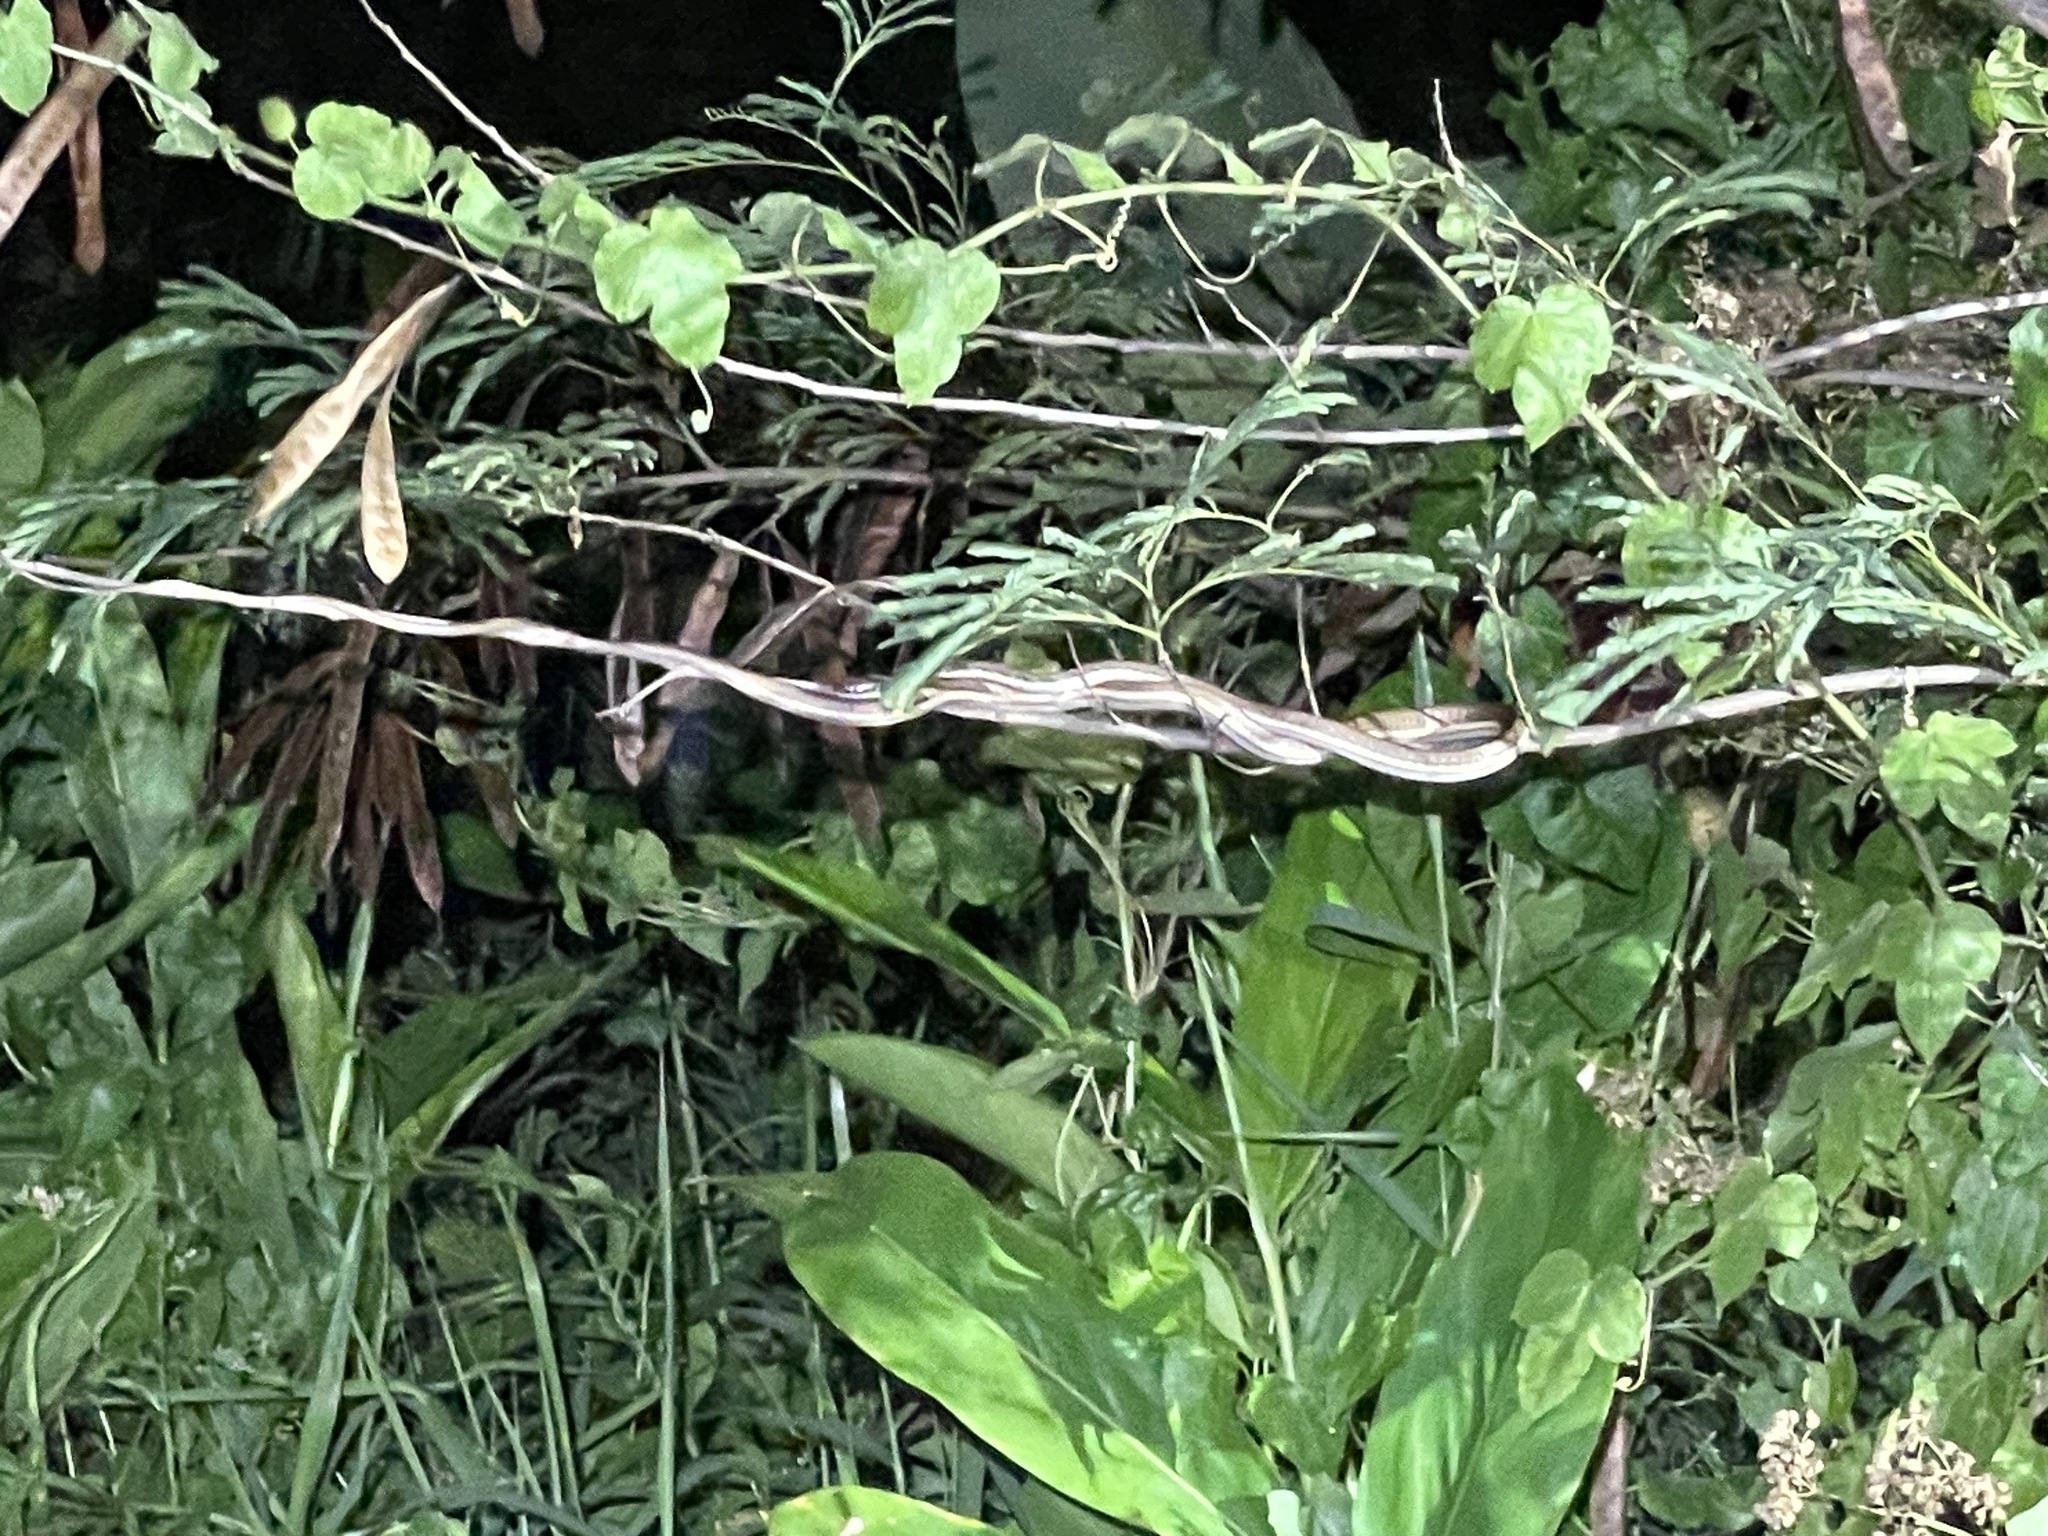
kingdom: Animalia
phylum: Chordata
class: Squamata
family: Colubridae
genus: Dendrelaphis
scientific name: Dendrelaphis pictus
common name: Indonesian bronze-back
